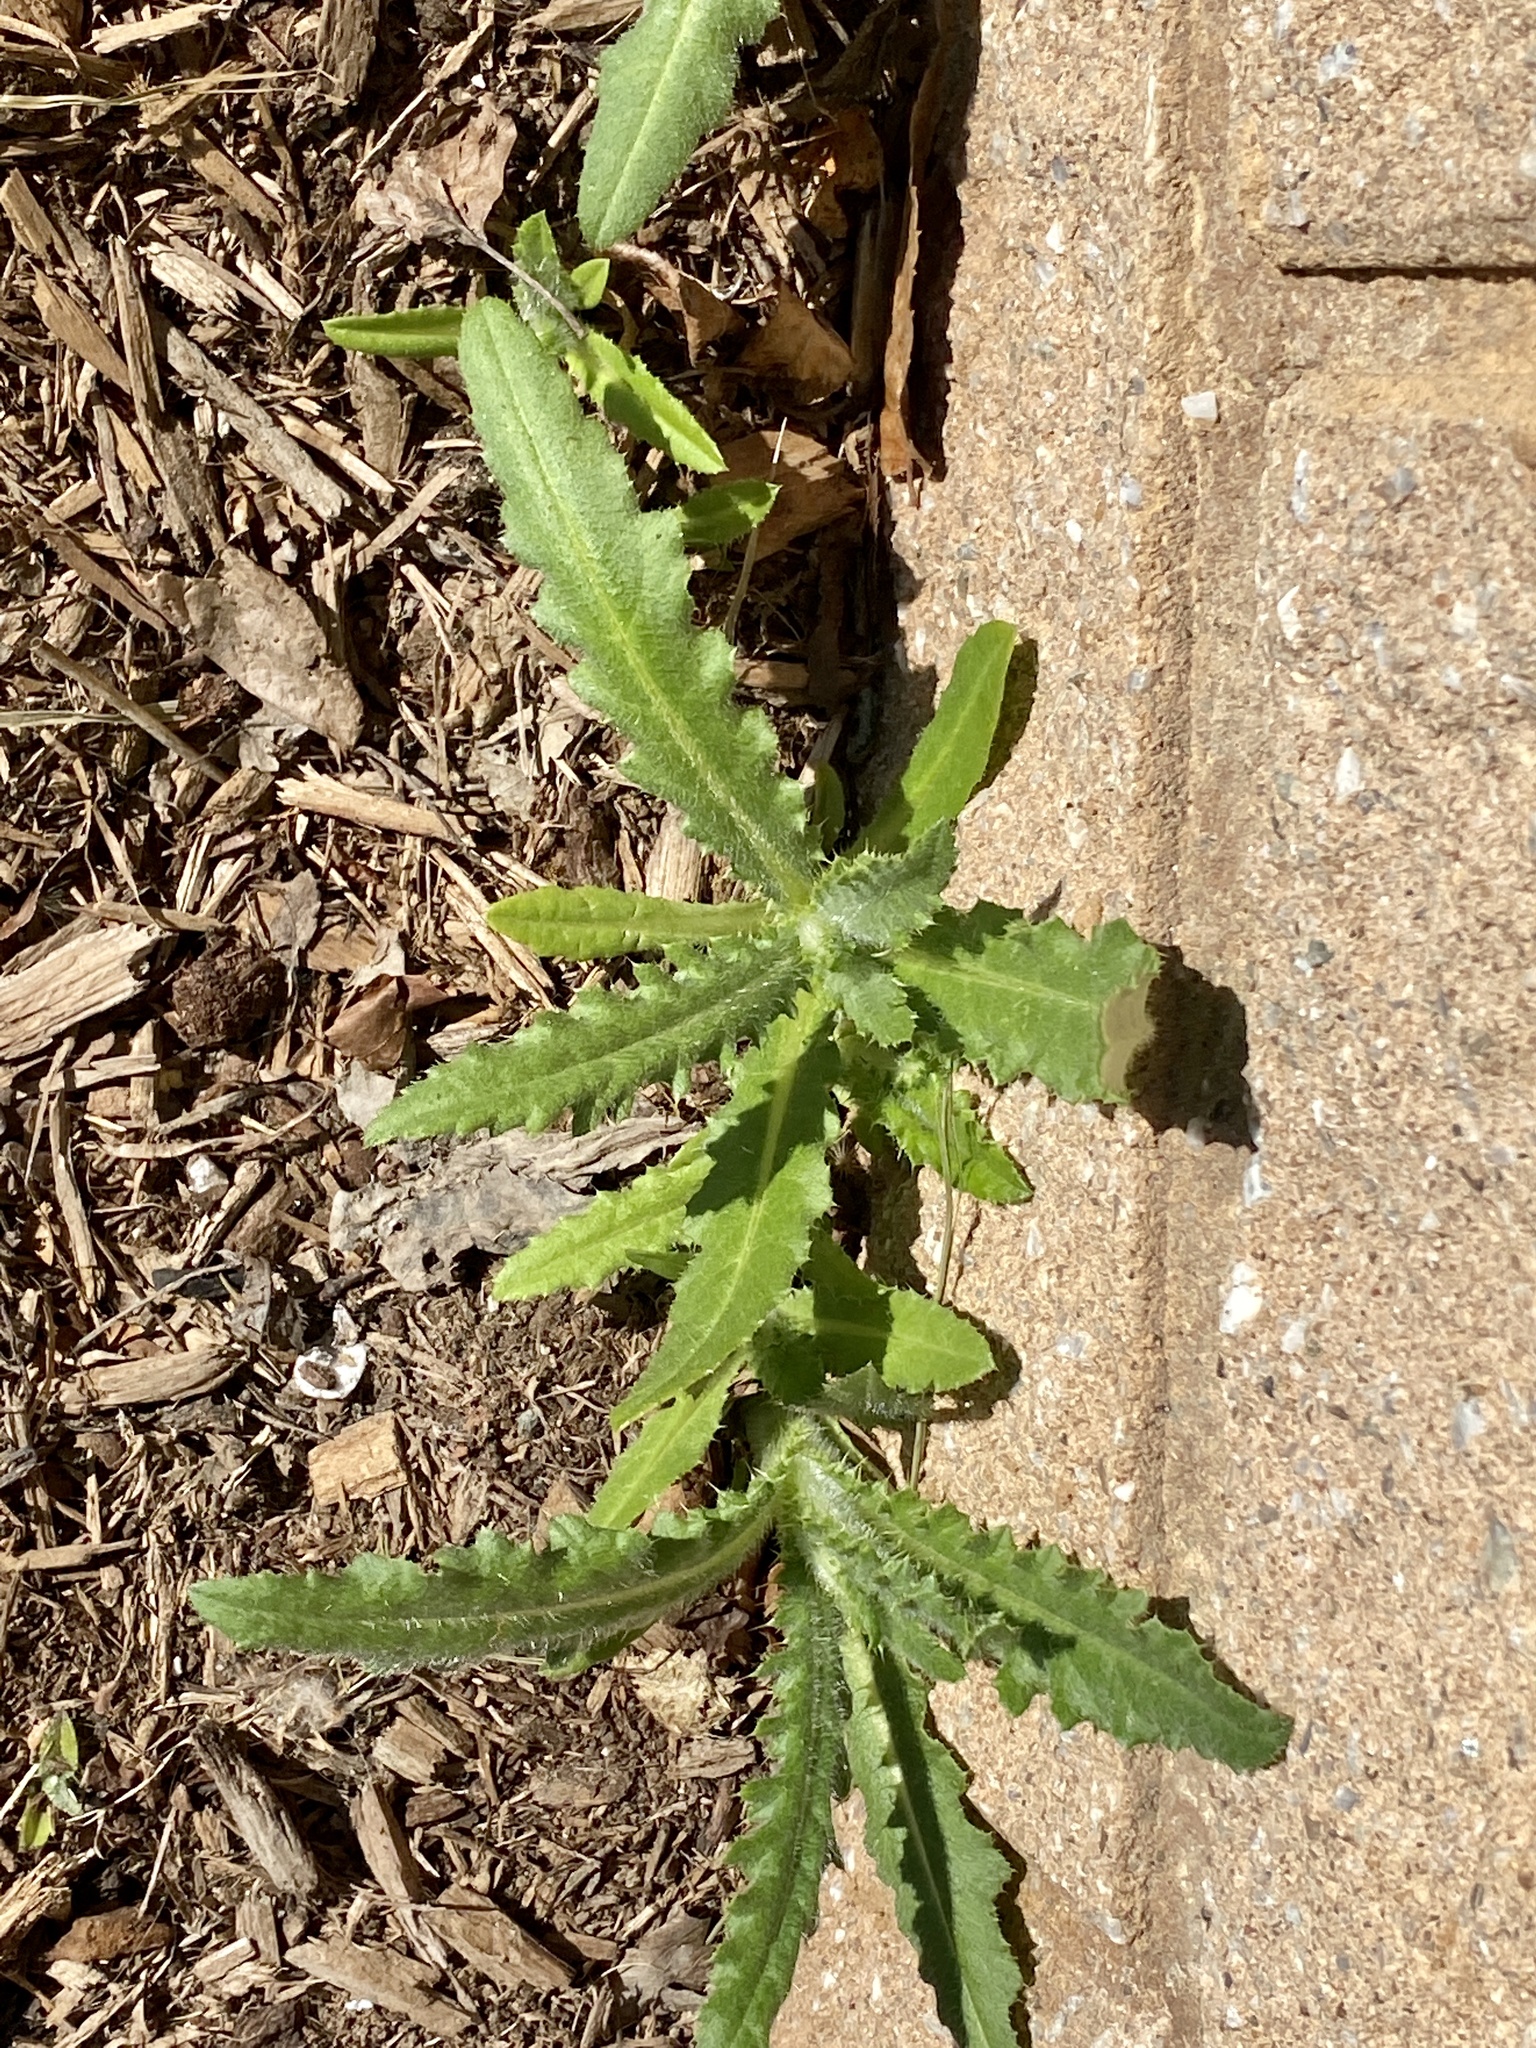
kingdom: Plantae
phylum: Tracheophyta
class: Magnoliopsida
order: Asterales
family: Asteraceae
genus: Cirsium
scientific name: Cirsium arvense
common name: Creeping thistle
